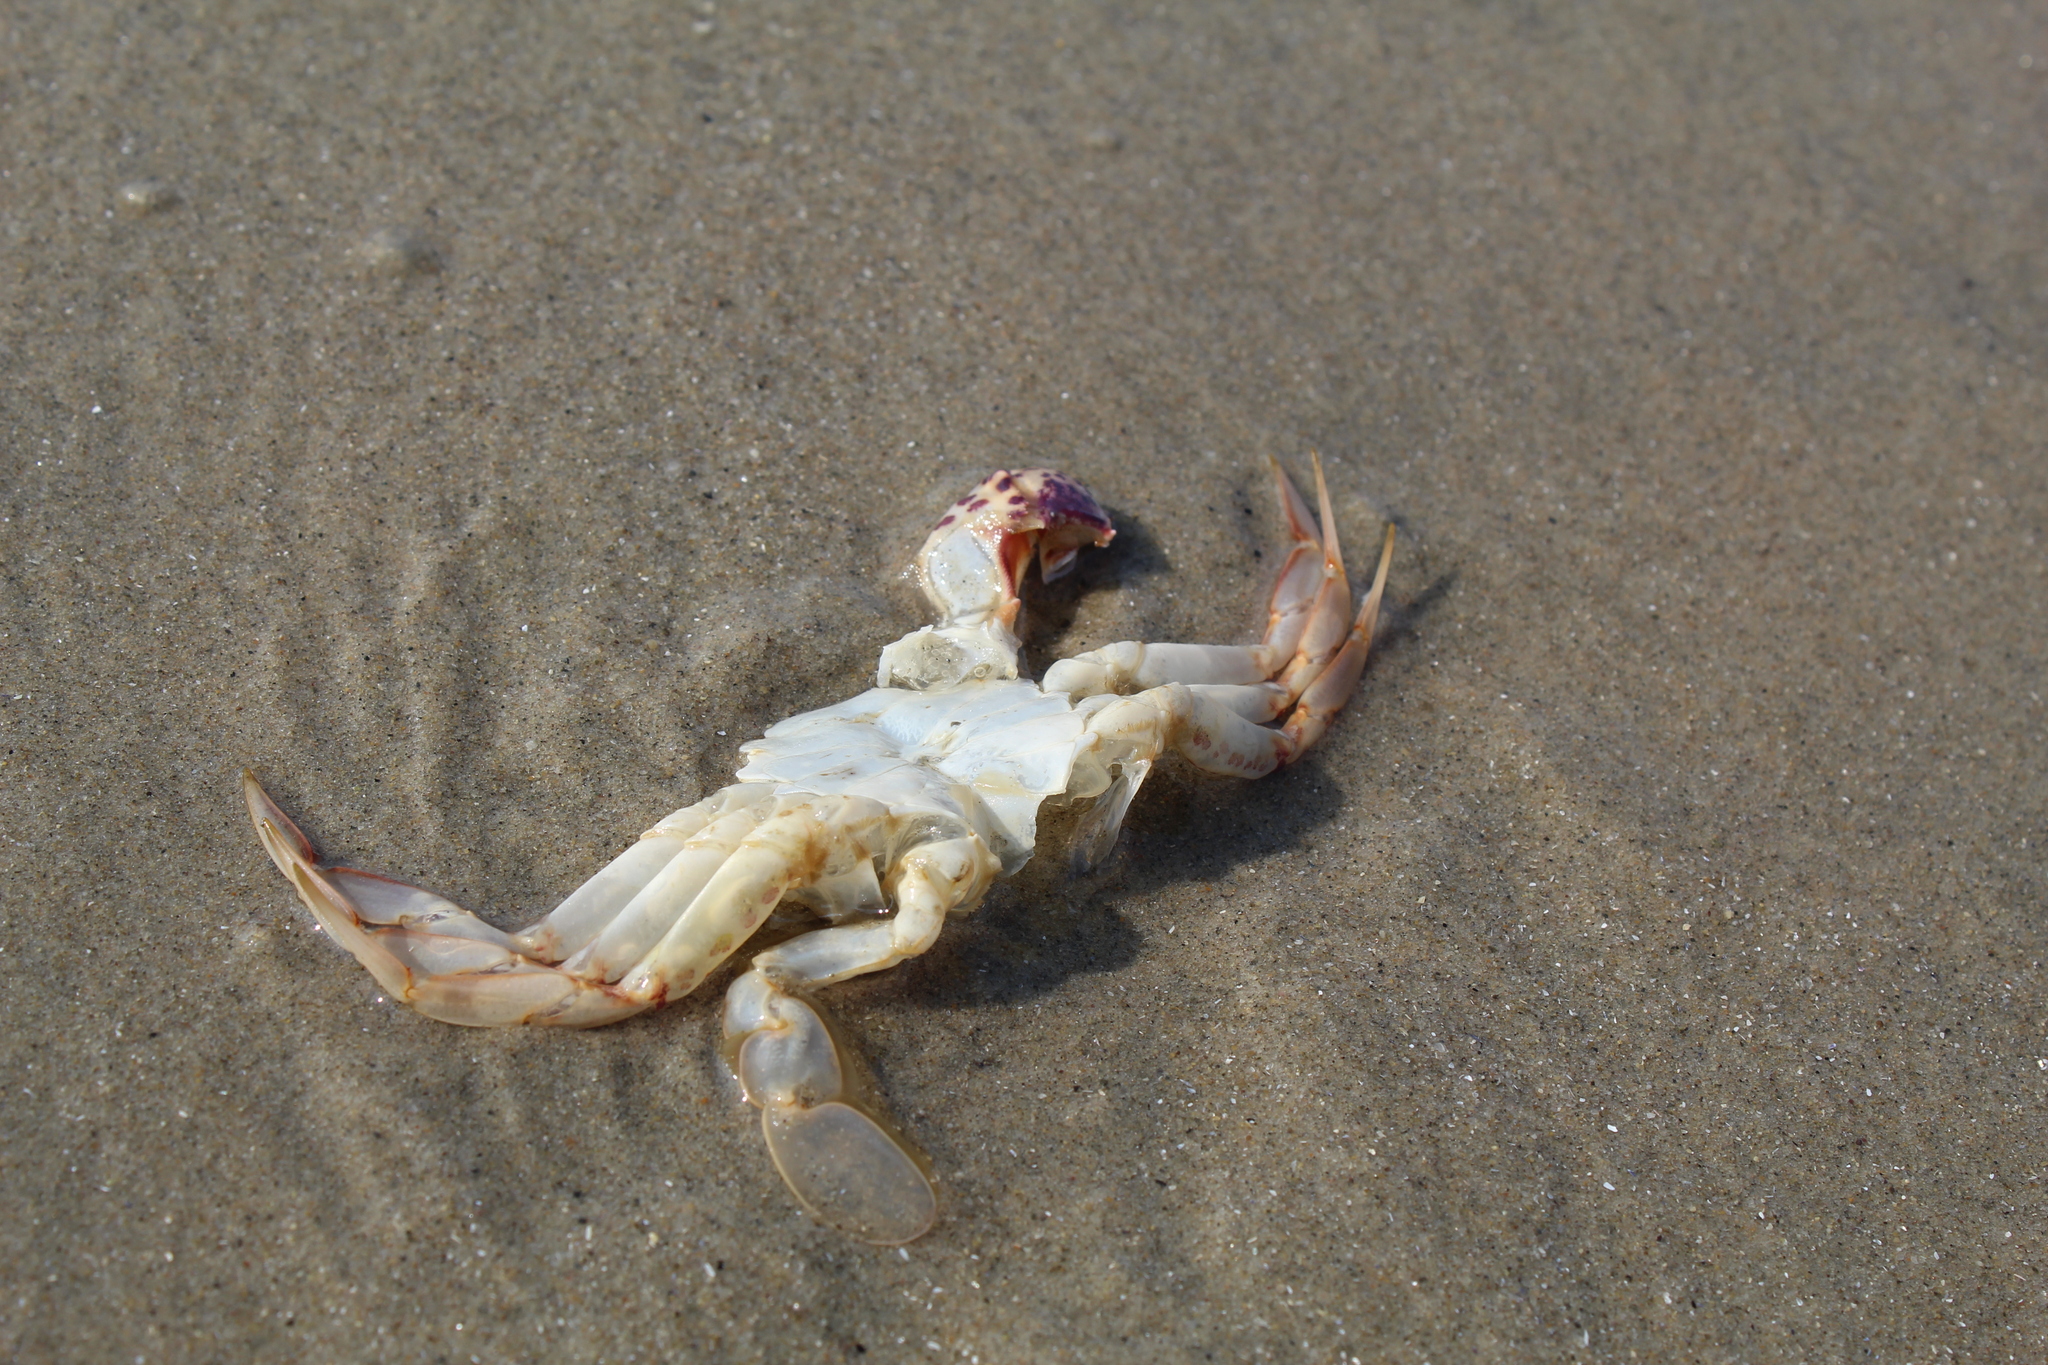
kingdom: Animalia
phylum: Arthropoda
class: Malacostraca
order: Decapoda
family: Ovalipidae
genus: Ovalipes
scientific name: Ovalipes ocellatus
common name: Lady crab
